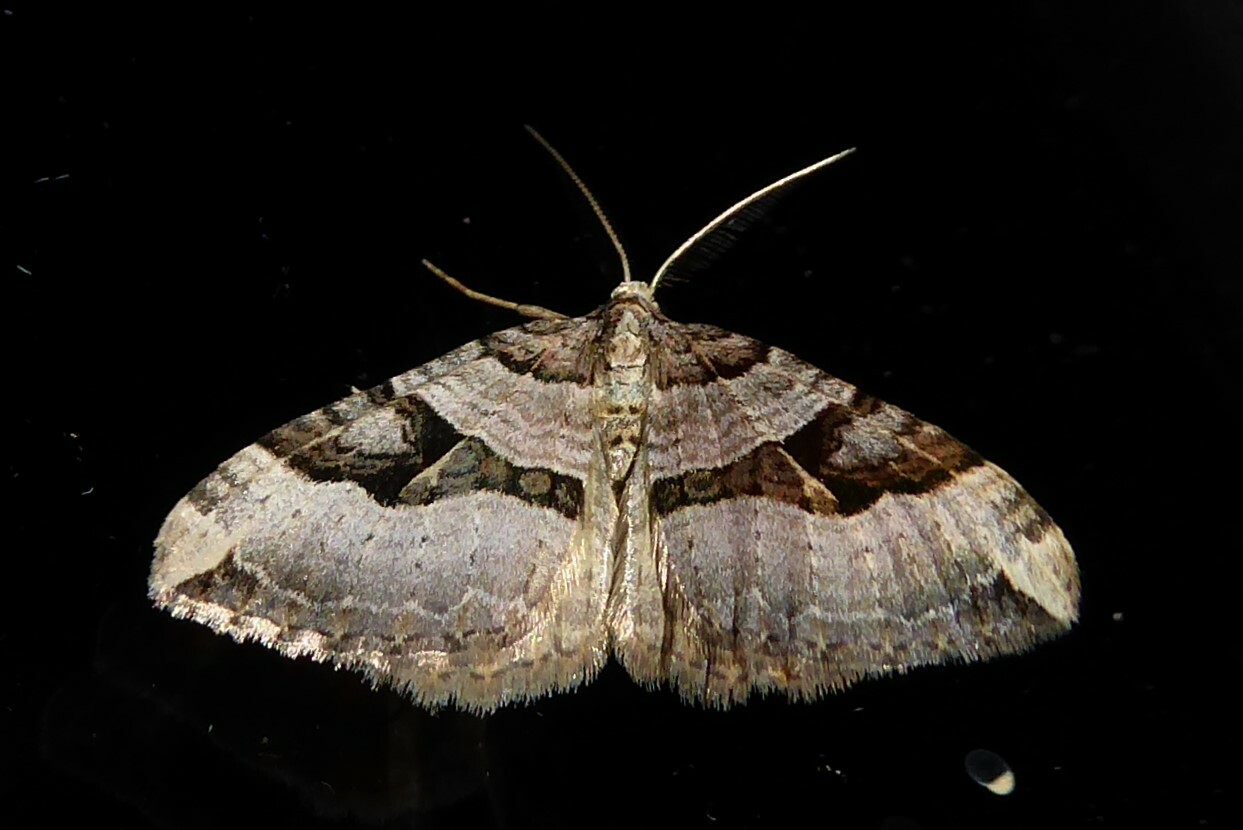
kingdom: Animalia
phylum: Arthropoda
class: Insecta
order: Lepidoptera
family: Geometridae
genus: Xanthorhoe
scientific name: Xanthorhoe semifissata
